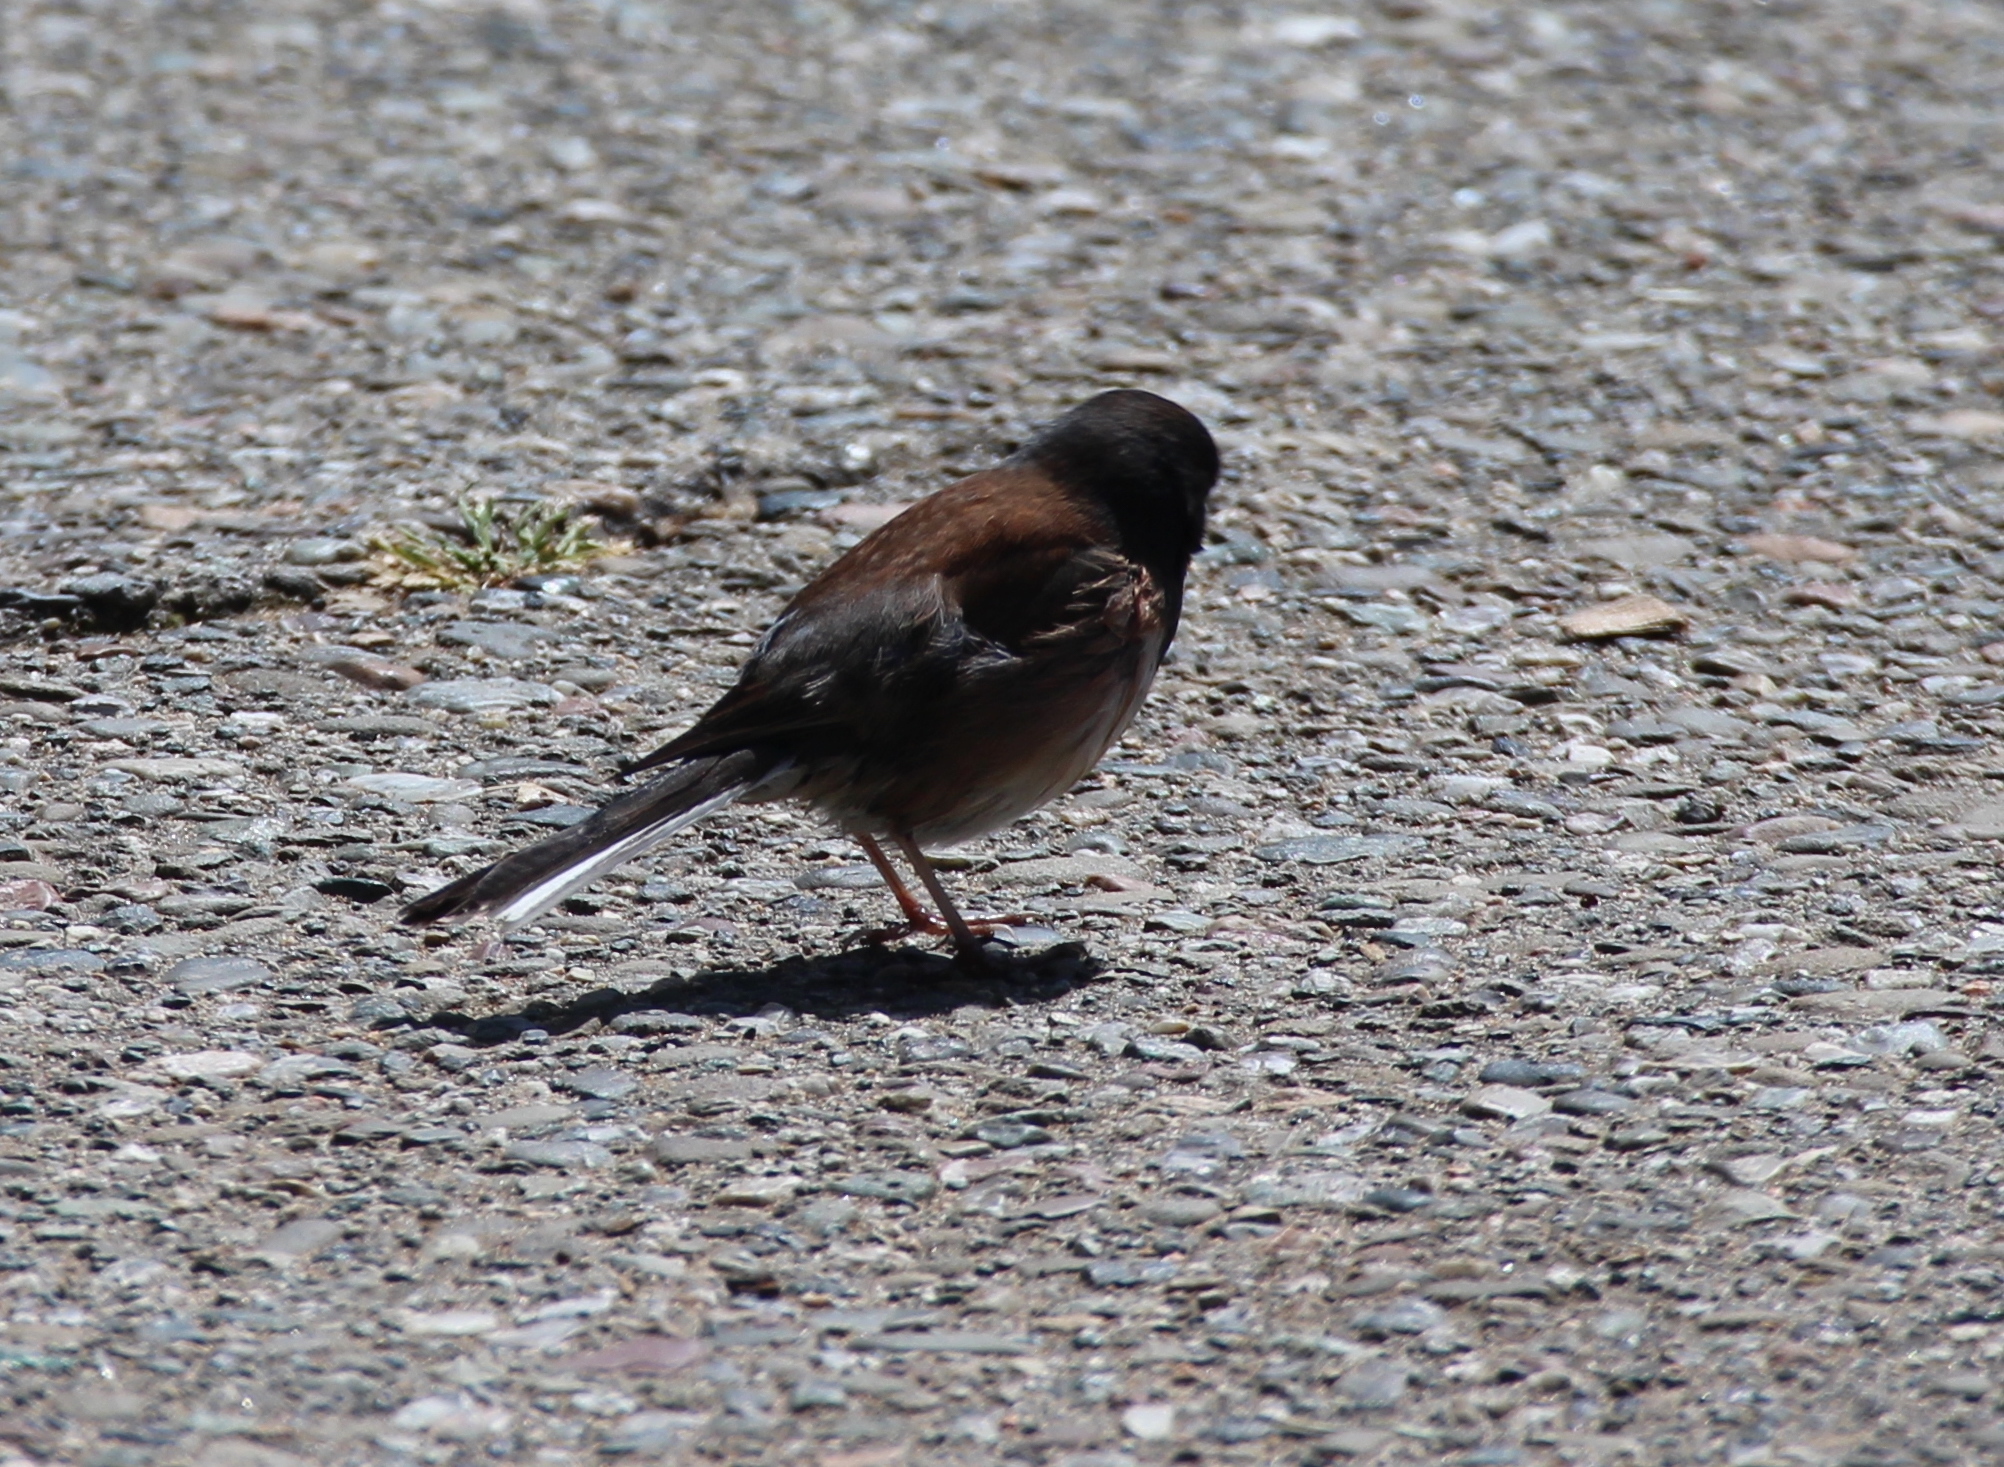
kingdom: Animalia
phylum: Chordata
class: Aves
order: Passeriformes
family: Passerellidae
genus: Junco
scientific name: Junco hyemalis
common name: Dark-eyed junco
